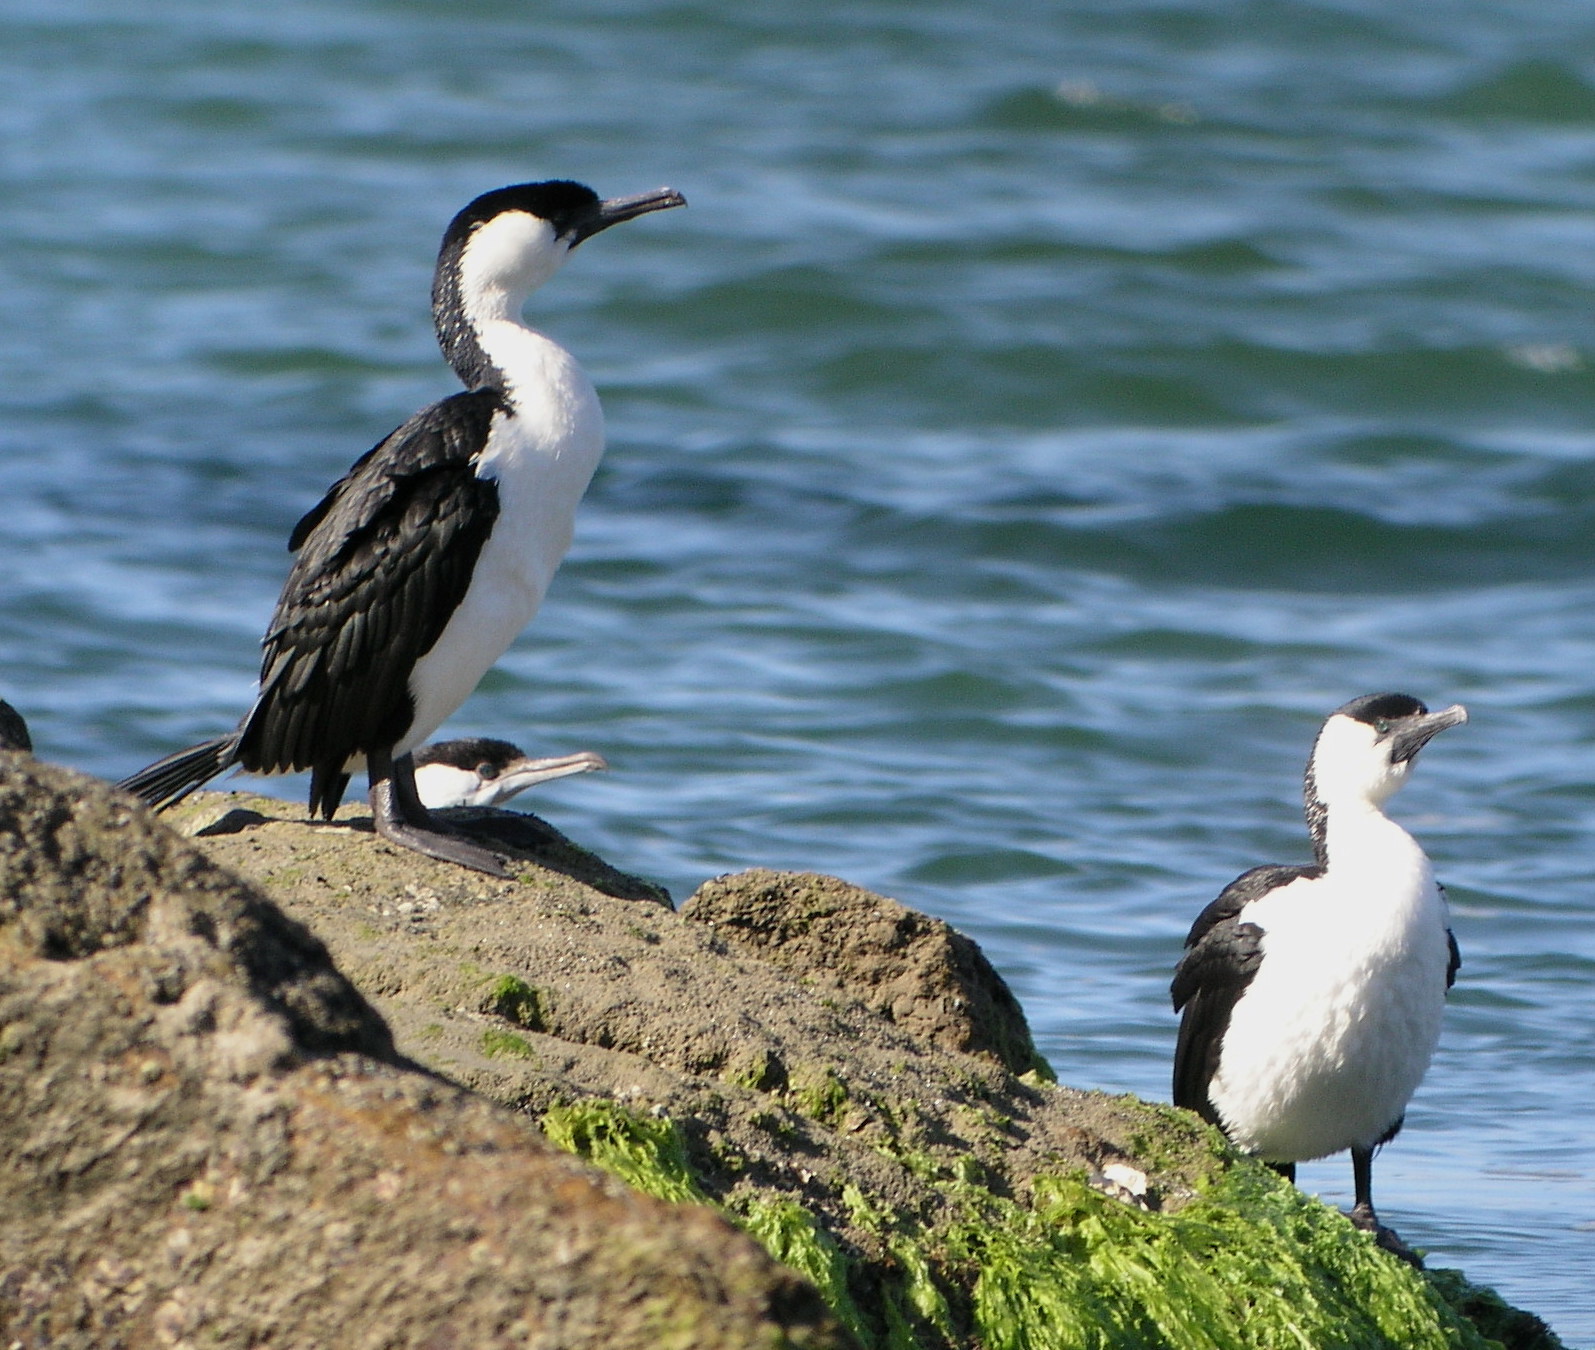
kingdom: Animalia
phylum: Chordata
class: Aves
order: Suliformes
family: Phalacrocoracidae
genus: Phalacrocorax
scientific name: Phalacrocorax fuscescens
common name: Black-faced cormorant
